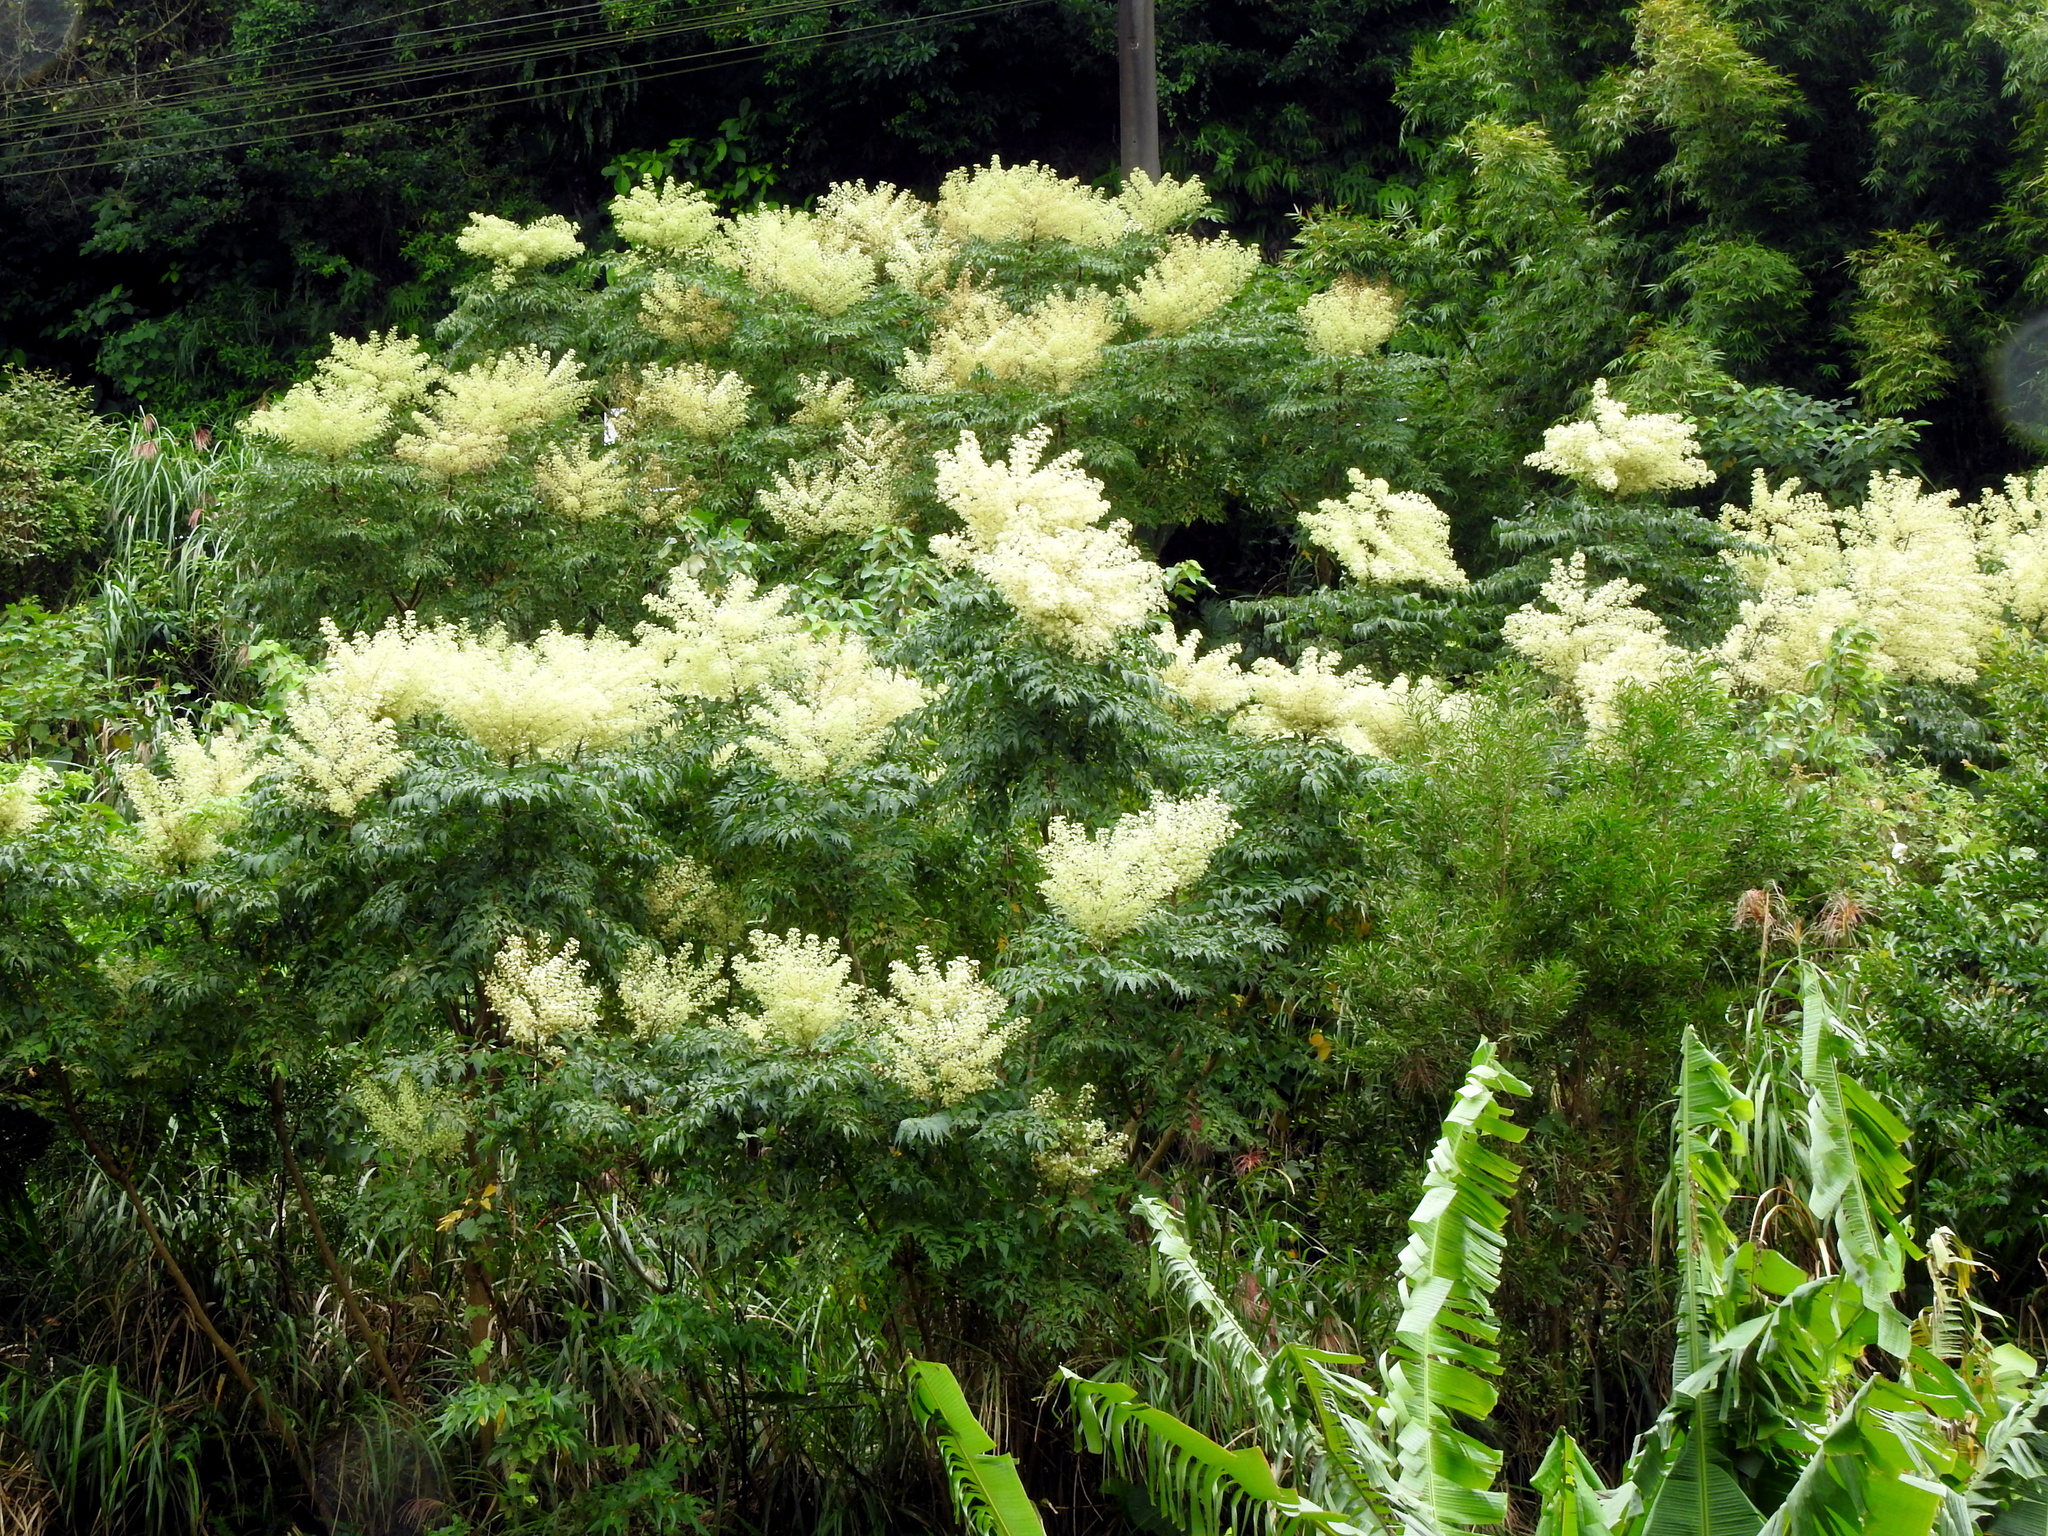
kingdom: Plantae
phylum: Tracheophyta
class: Magnoliopsida
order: Apiales
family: Araliaceae
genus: Aralia
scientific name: Aralia bipinnata
